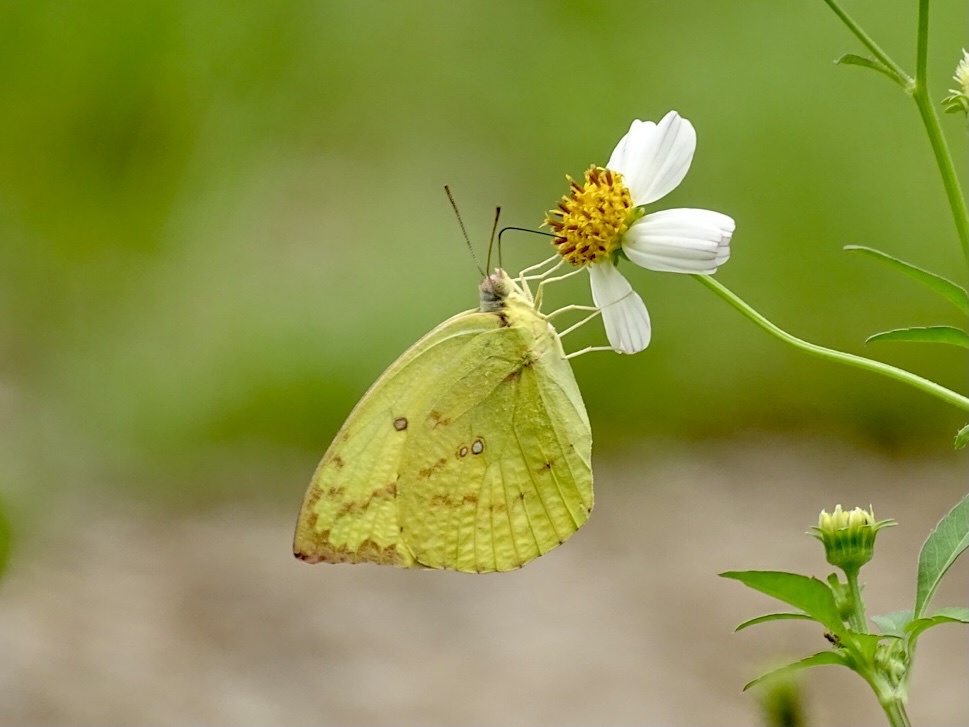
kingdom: Animalia
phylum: Arthropoda
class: Insecta
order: Lepidoptera
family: Pieridae
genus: Catopsilia
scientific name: Catopsilia pomona
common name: Common emigrant
